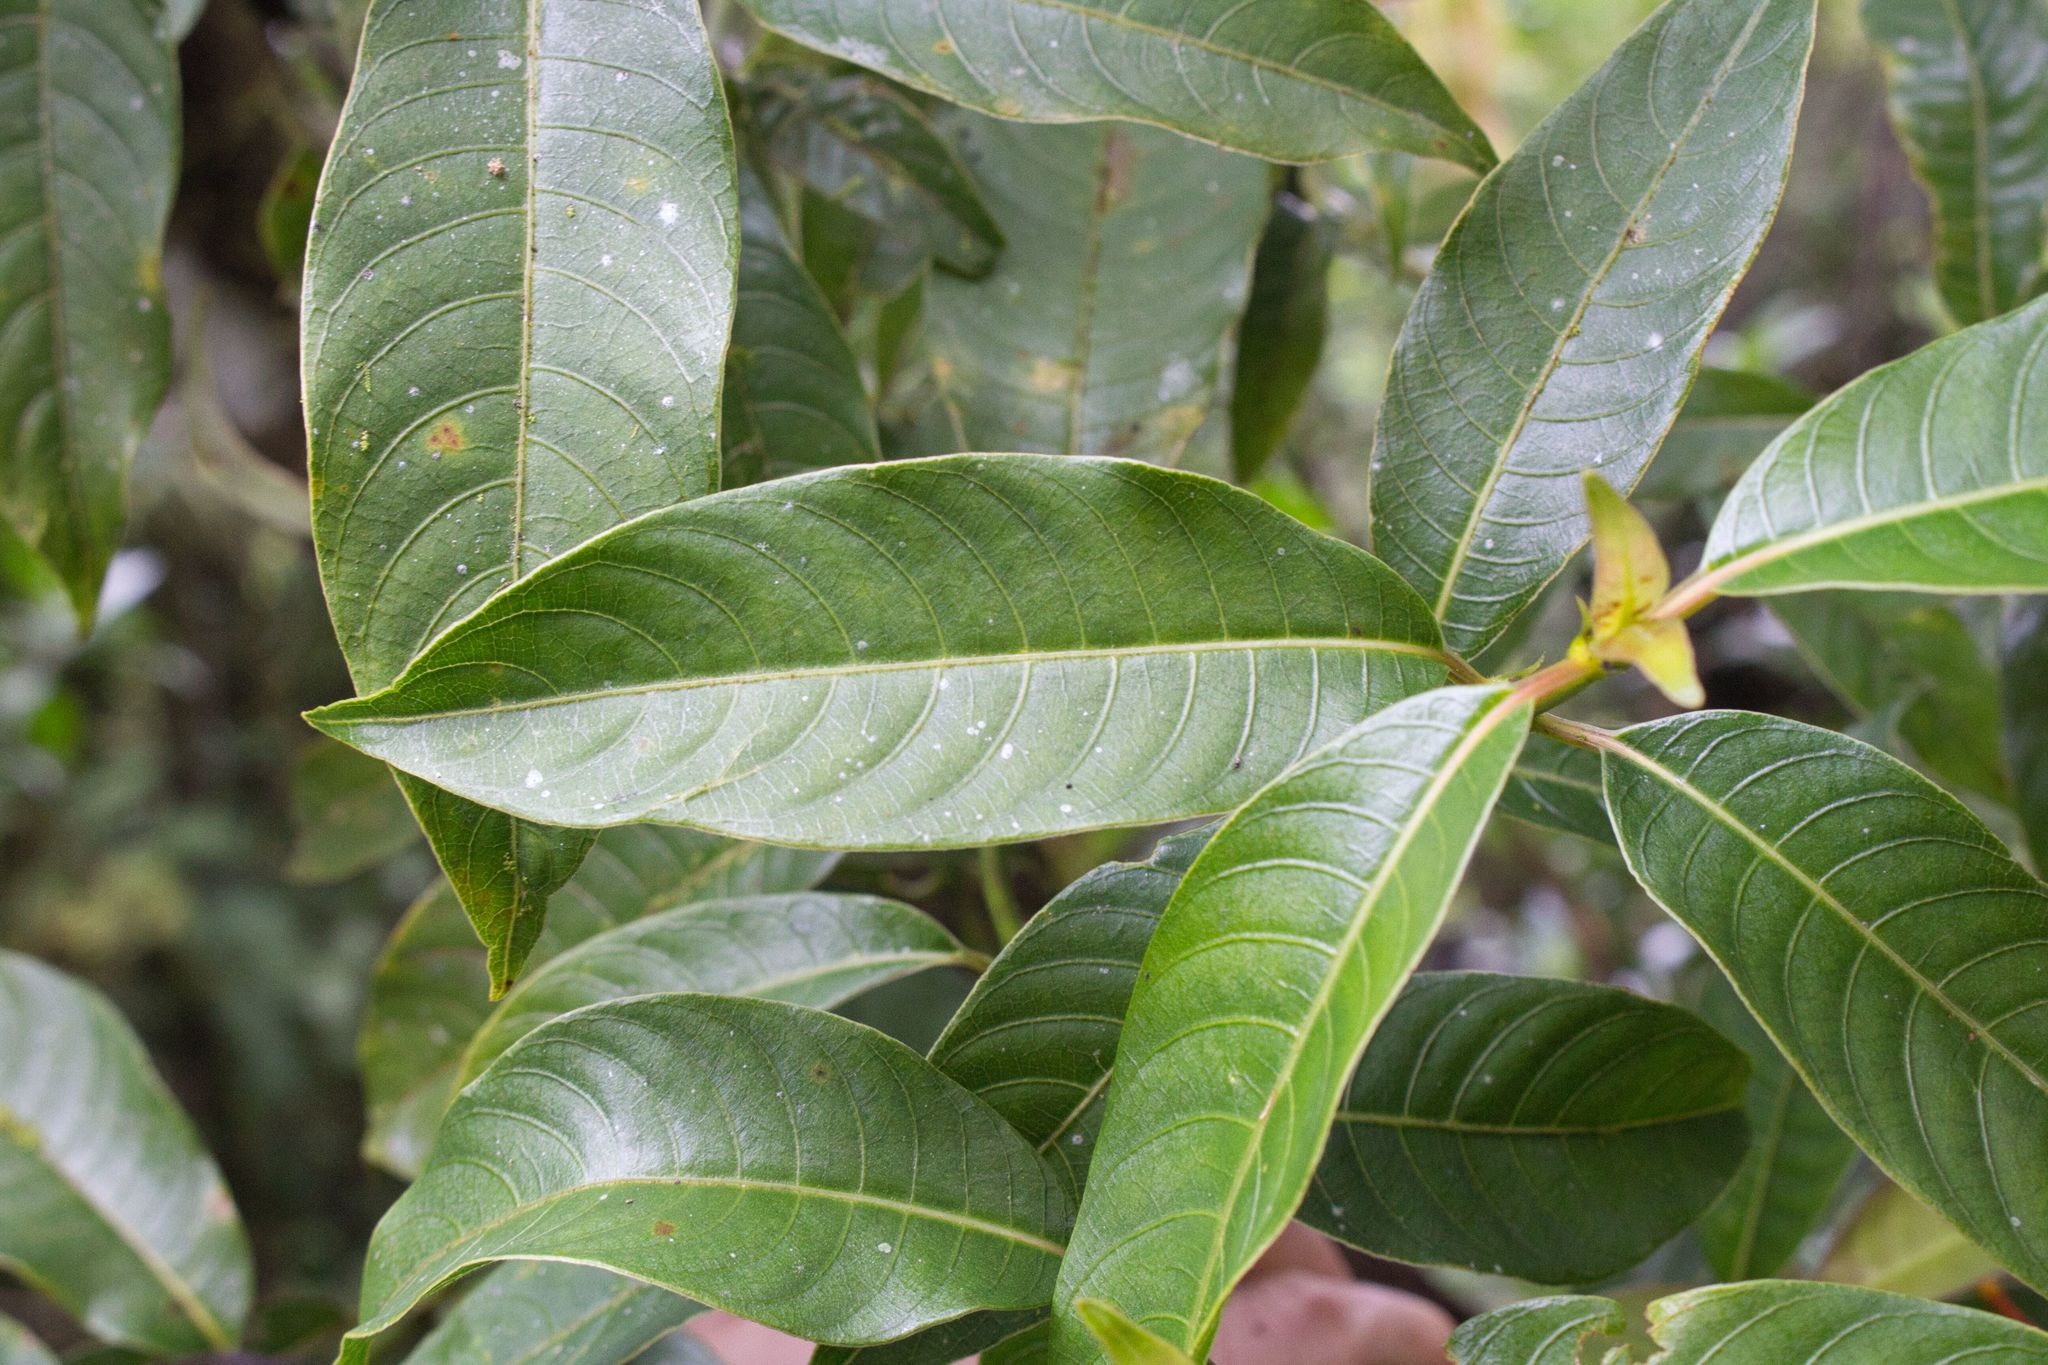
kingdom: Plantae
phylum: Tracheophyta
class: Magnoliopsida
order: Gentianales
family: Rubiaceae
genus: Palicourea
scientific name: Palicourea padifolia
